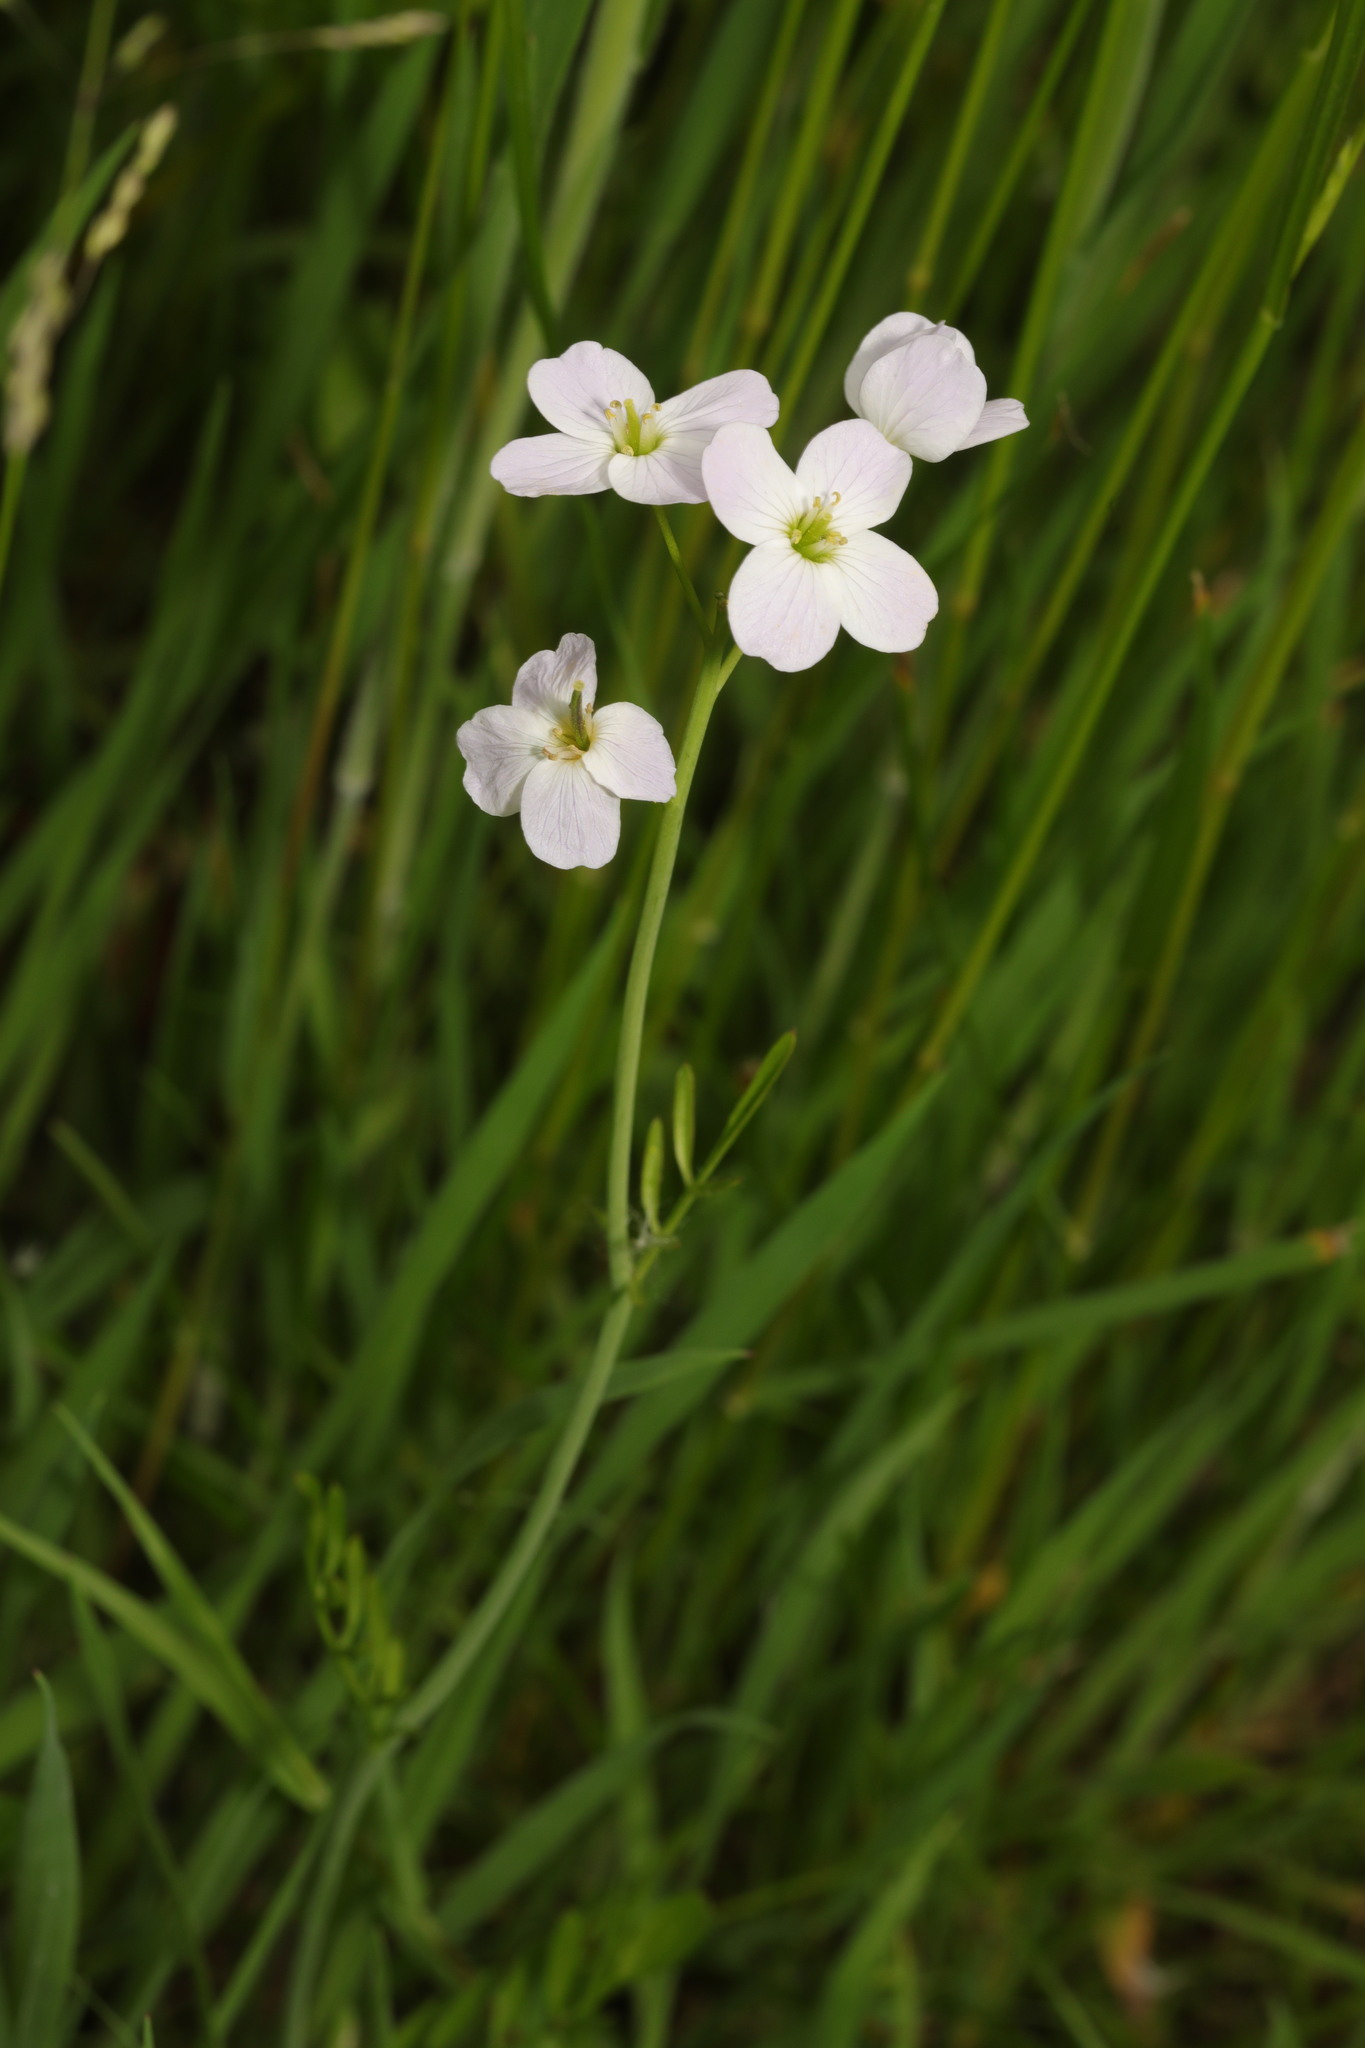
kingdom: Plantae
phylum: Tracheophyta
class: Magnoliopsida
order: Brassicales
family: Brassicaceae
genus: Cardamine
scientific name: Cardamine pratensis
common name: Cuckoo flower
